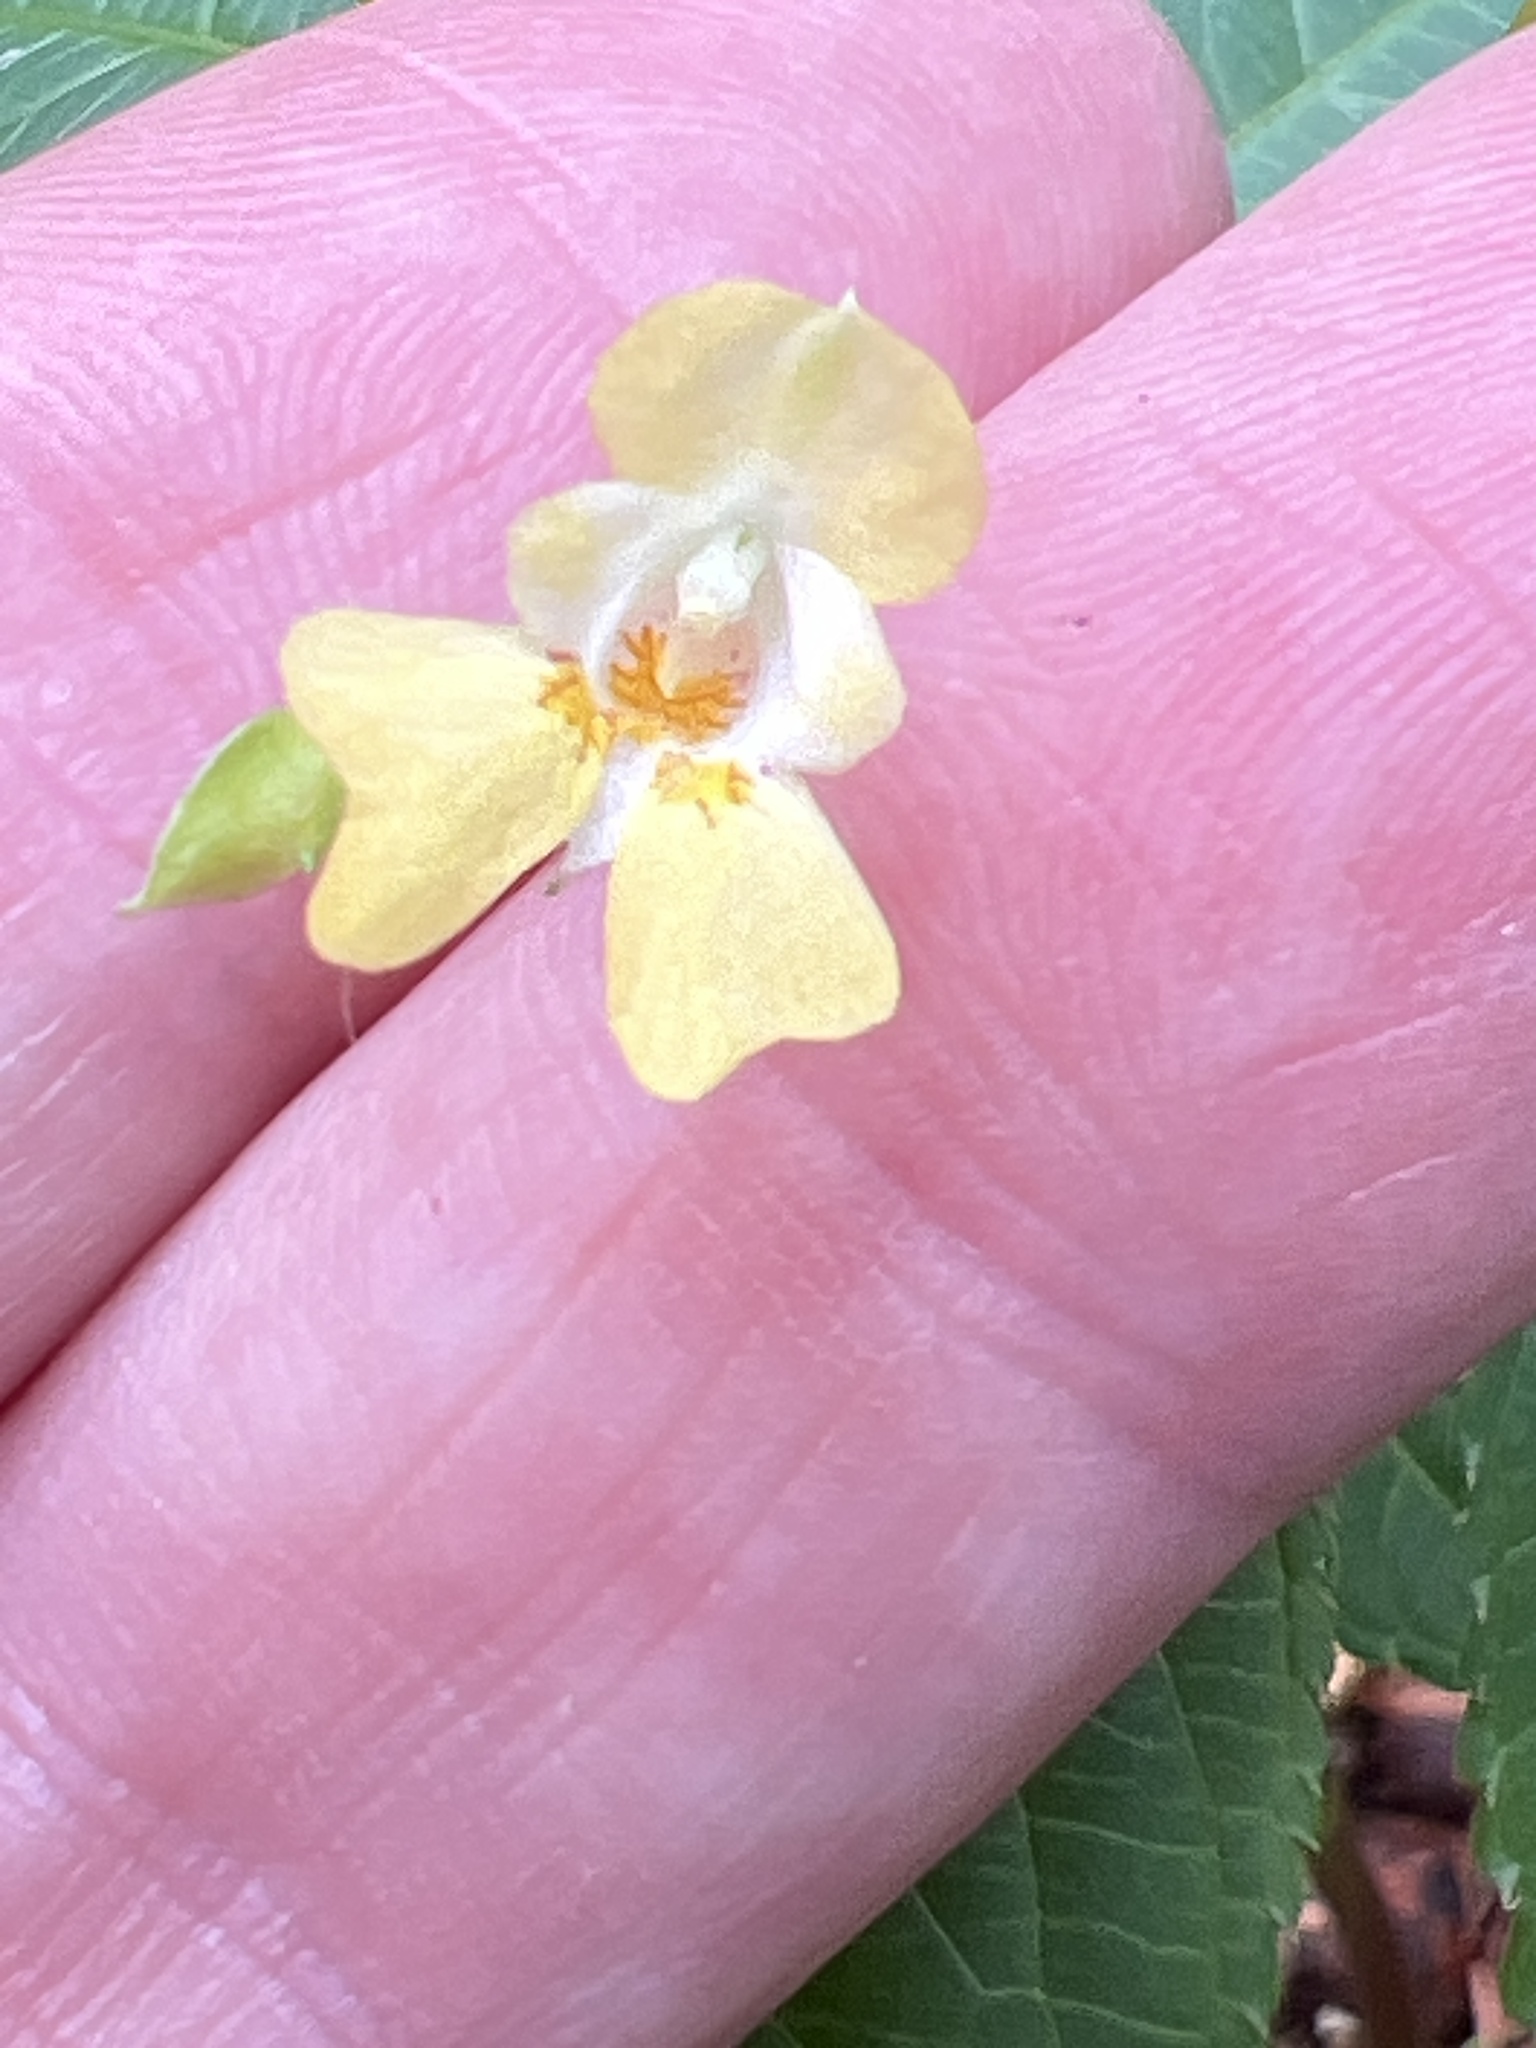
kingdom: Plantae
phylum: Tracheophyta
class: Magnoliopsida
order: Ericales
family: Balsaminaceae
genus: Impatiens
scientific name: Impatiens parviflora
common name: Small balsam
